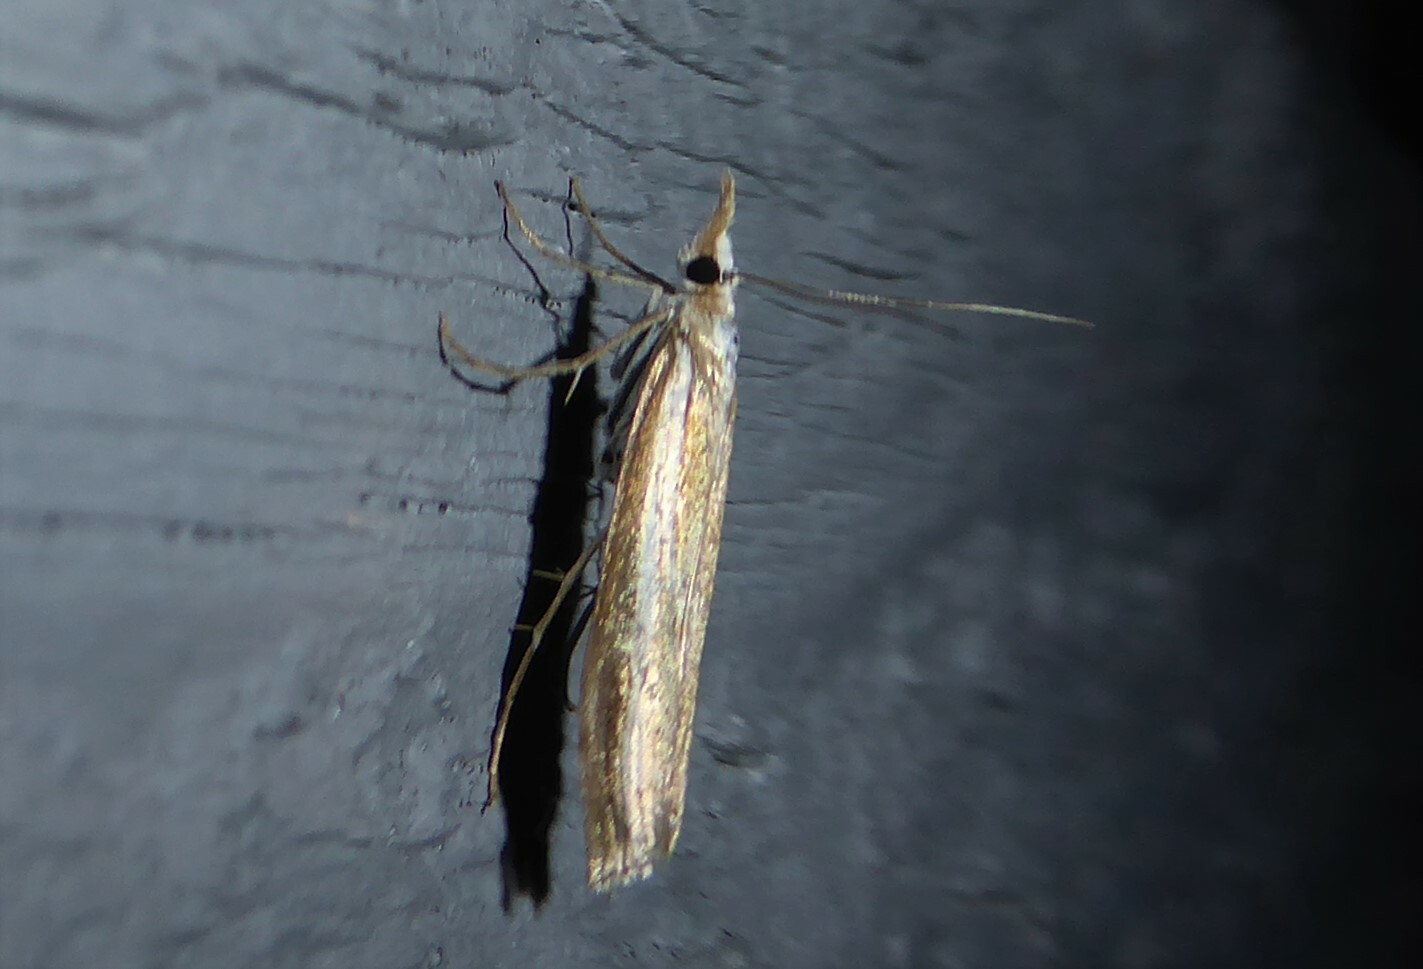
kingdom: Animalia
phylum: Arthropoda
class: Insecta
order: Lepidoptera
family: Crambidae
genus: Orocrambus
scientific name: Orocrambus vittellus
